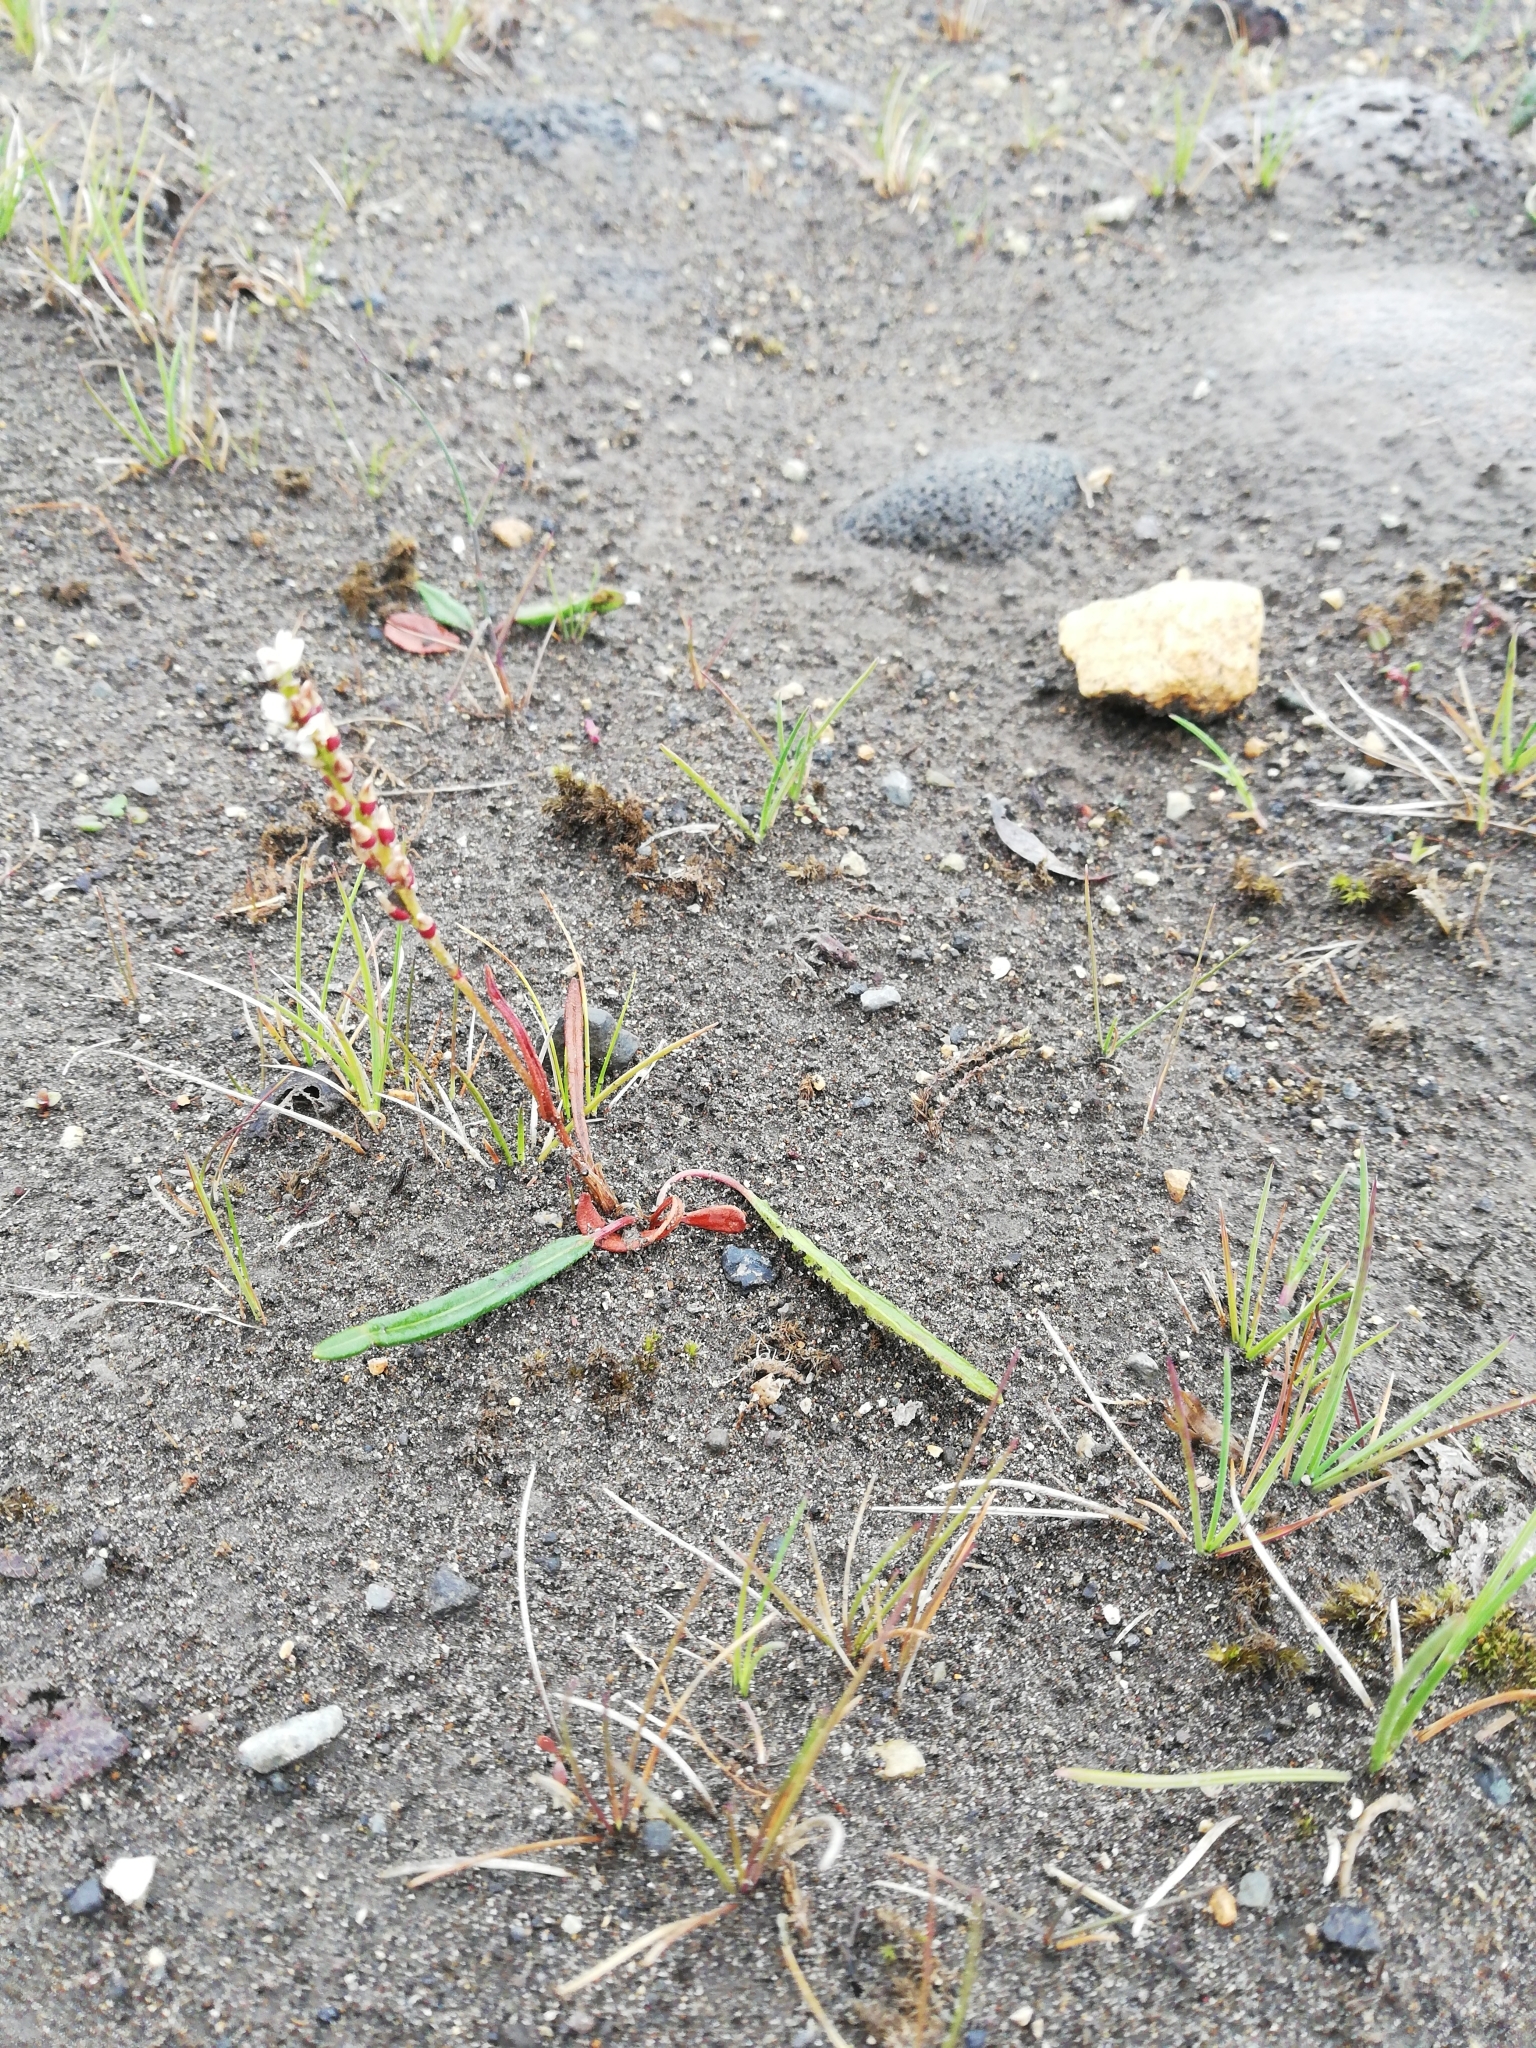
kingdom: Plantae
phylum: Tracheophyta
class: Magnoliopsida
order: Caryophyllales
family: Polygonaceae
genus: Bistorta
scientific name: Bistorta vivipara
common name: Alpine bistort
